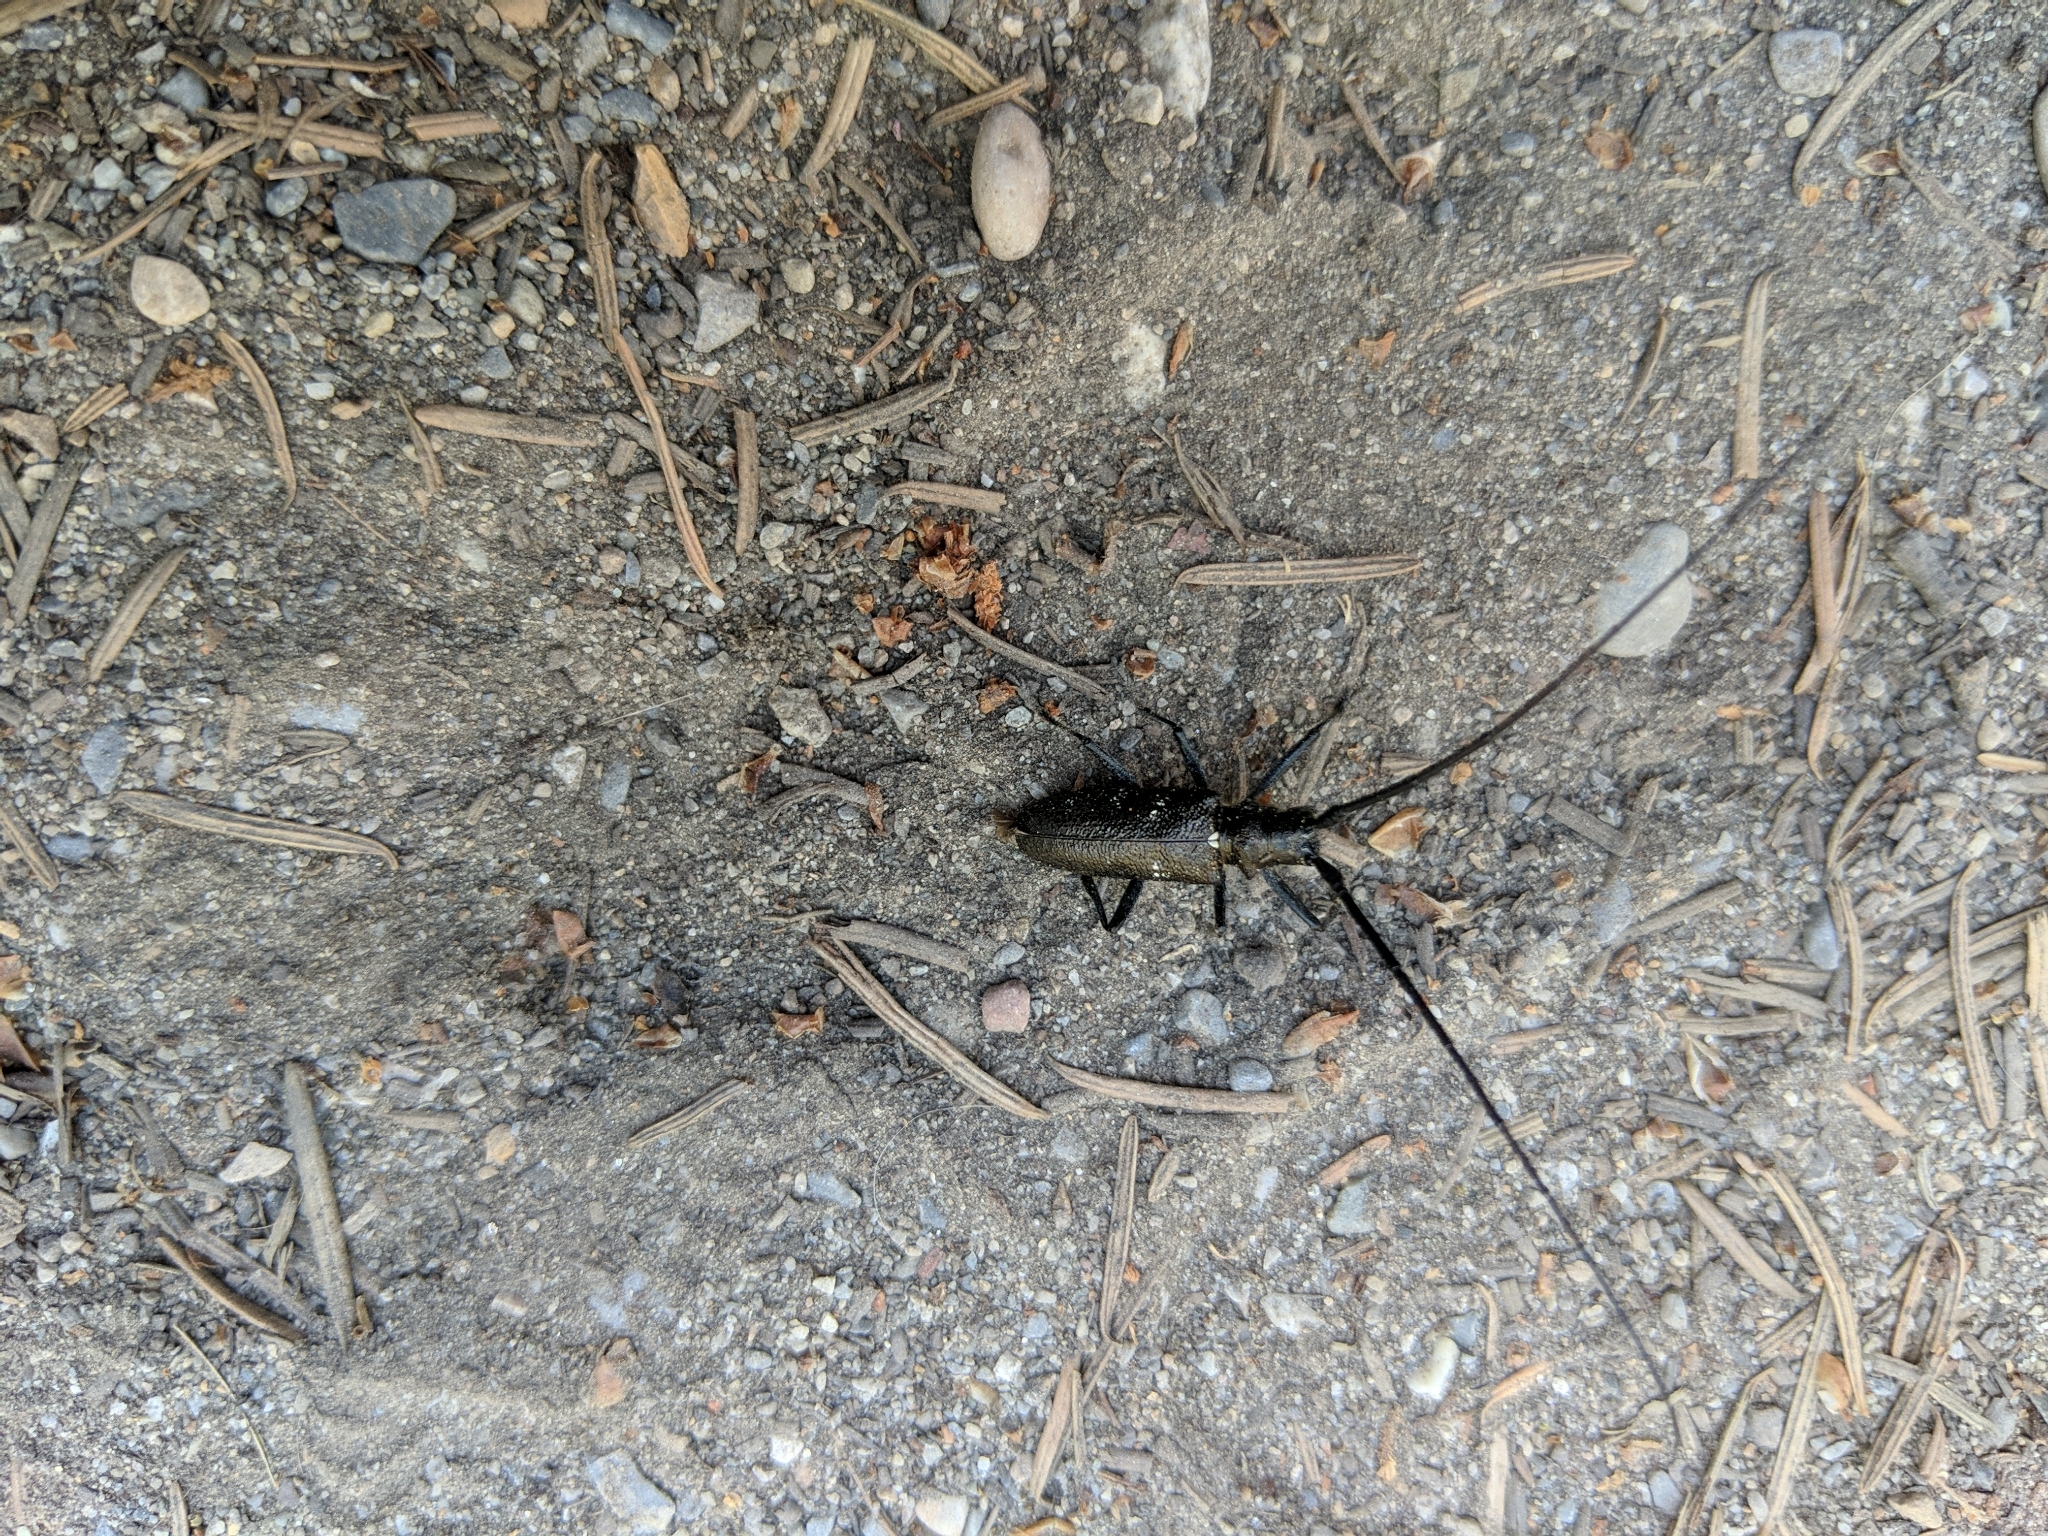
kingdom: Animalia
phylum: Arthropoda
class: Insecta
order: Coleoptera
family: Cerambycidae
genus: Monochamus
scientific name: Monochamus scutellatus
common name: White-spotted sawyer beetle
